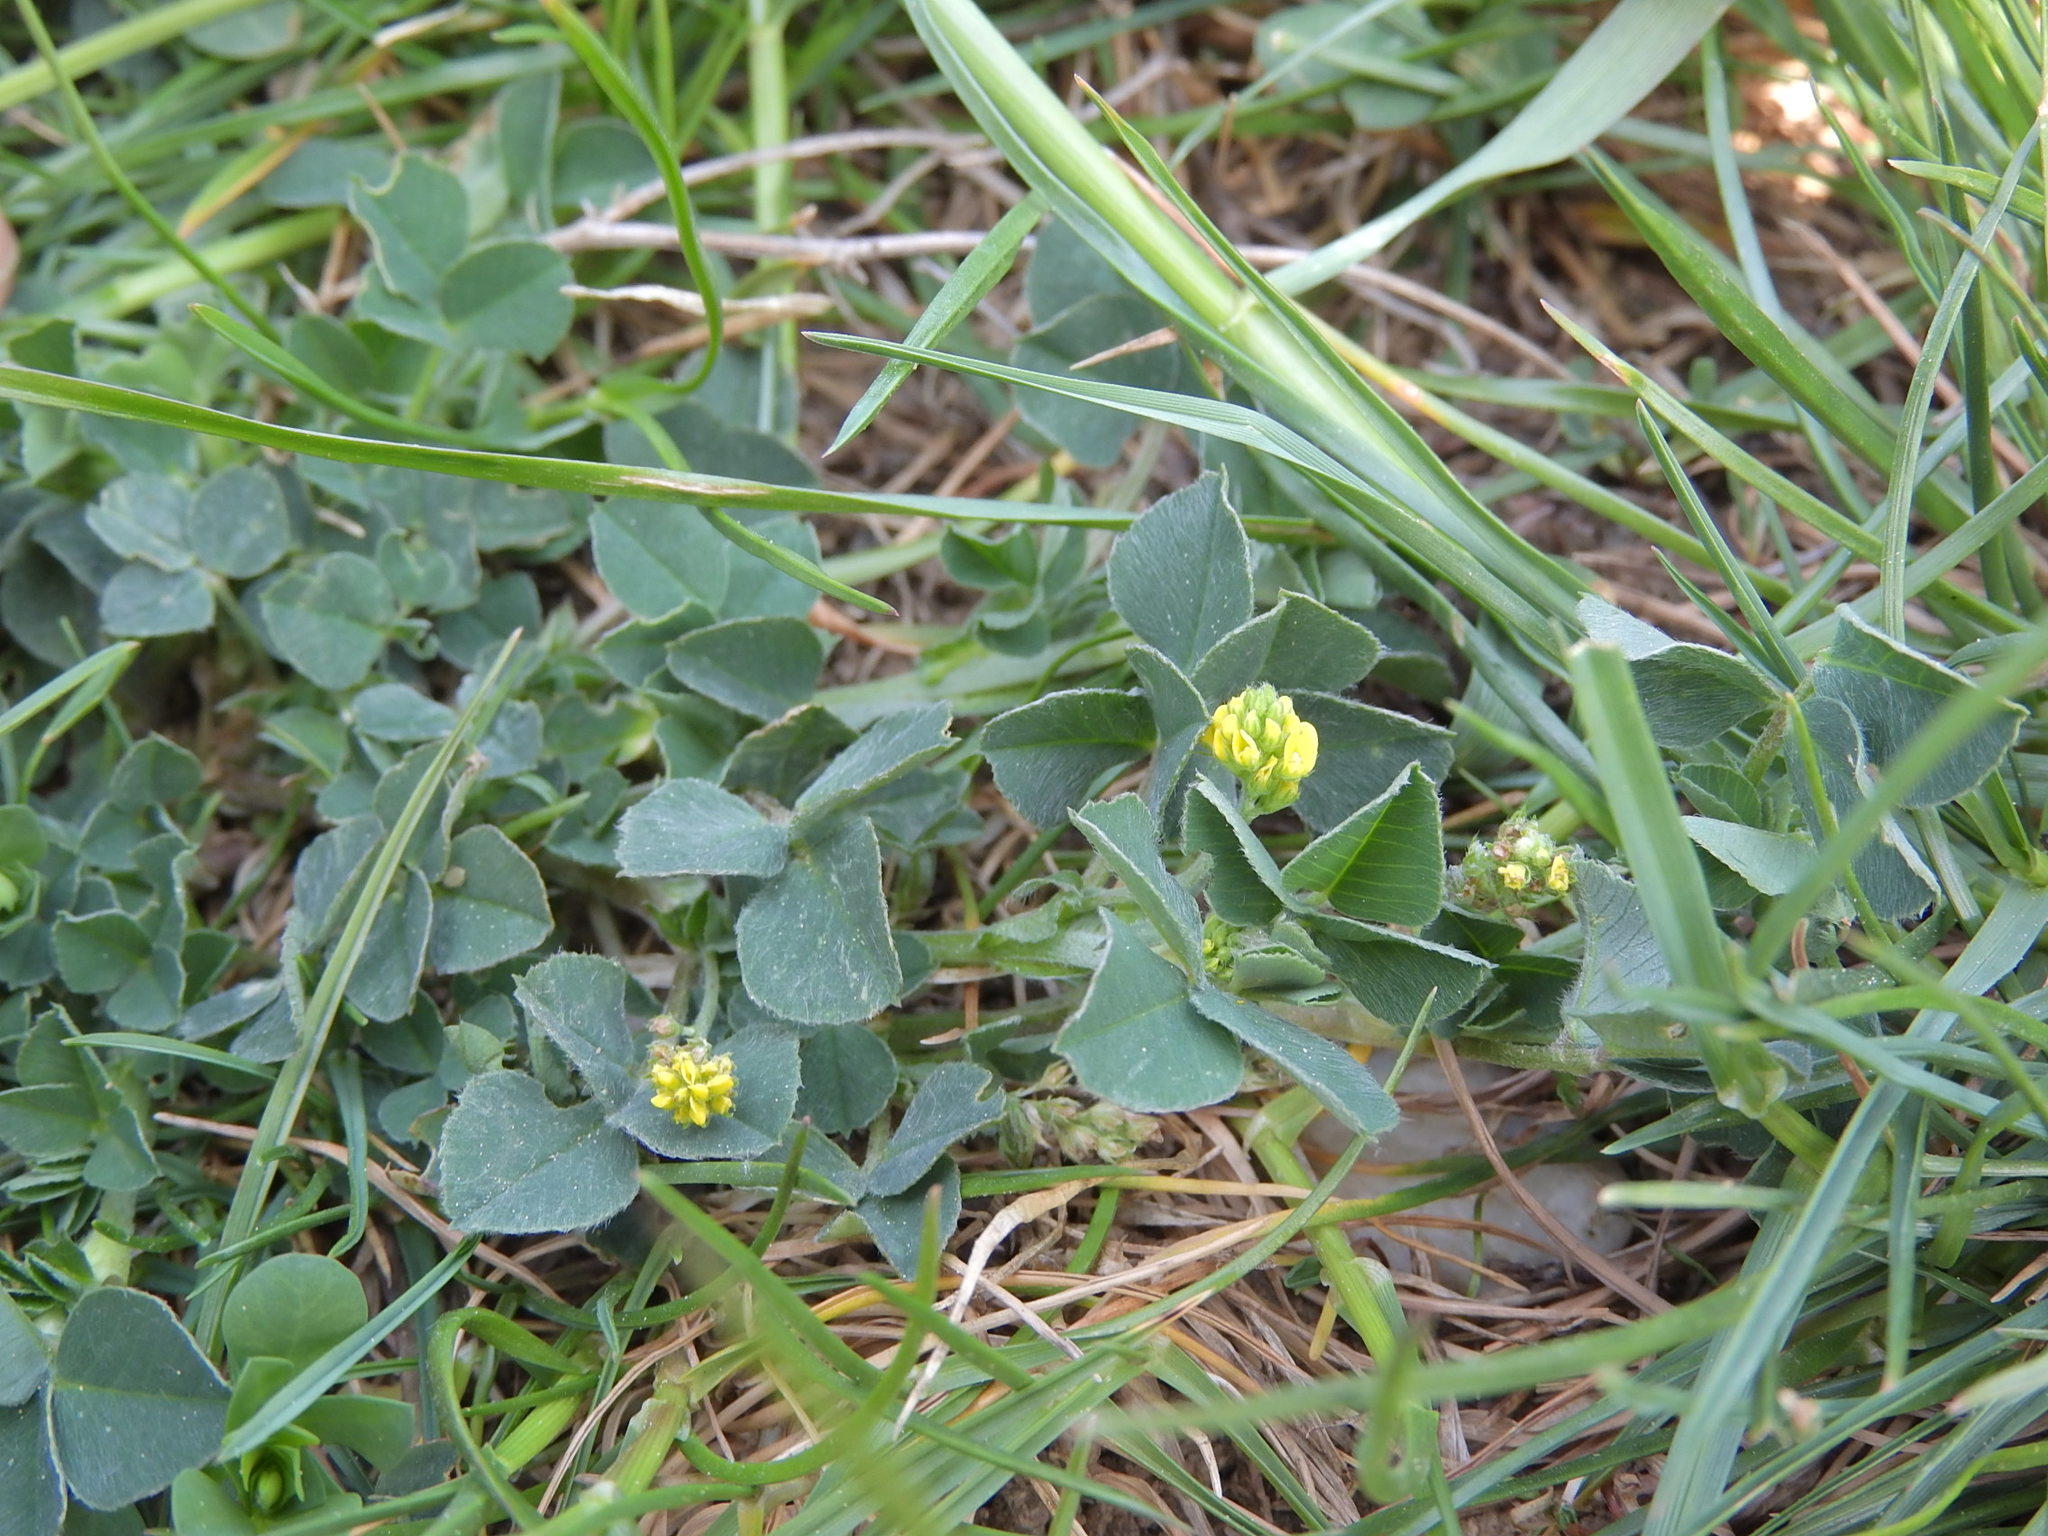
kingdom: Plantae
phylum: Tracheophyta
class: Magnoliopsida
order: Fabales
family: Fabaceae
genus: Medicago
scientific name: Medicago lupulina
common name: Black medick
